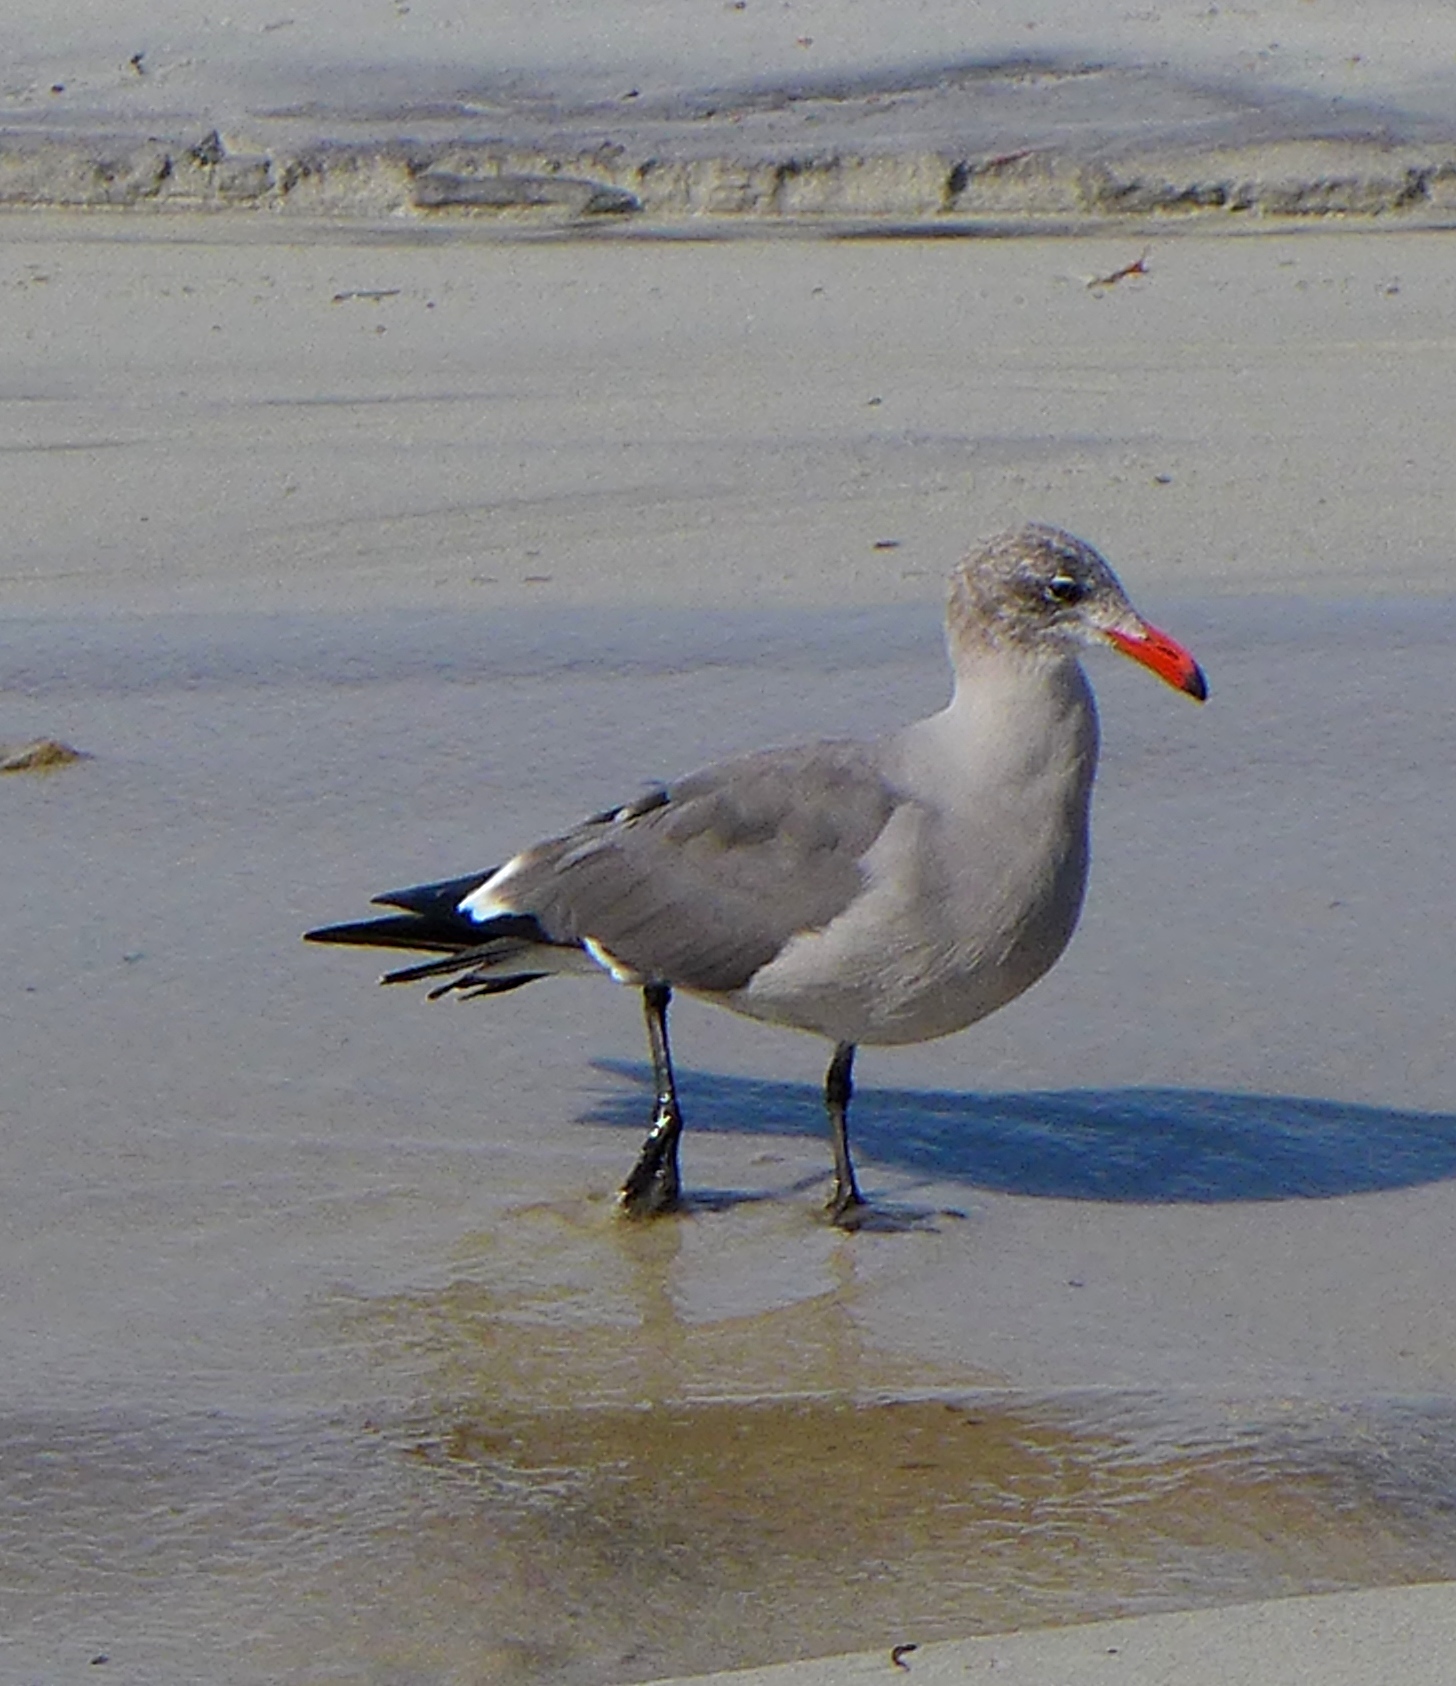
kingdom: Animalia
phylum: Chordata
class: Aves
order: Charadriiformes
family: Laridae
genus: Larus
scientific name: Larus heermanni
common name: Heermann's gull
